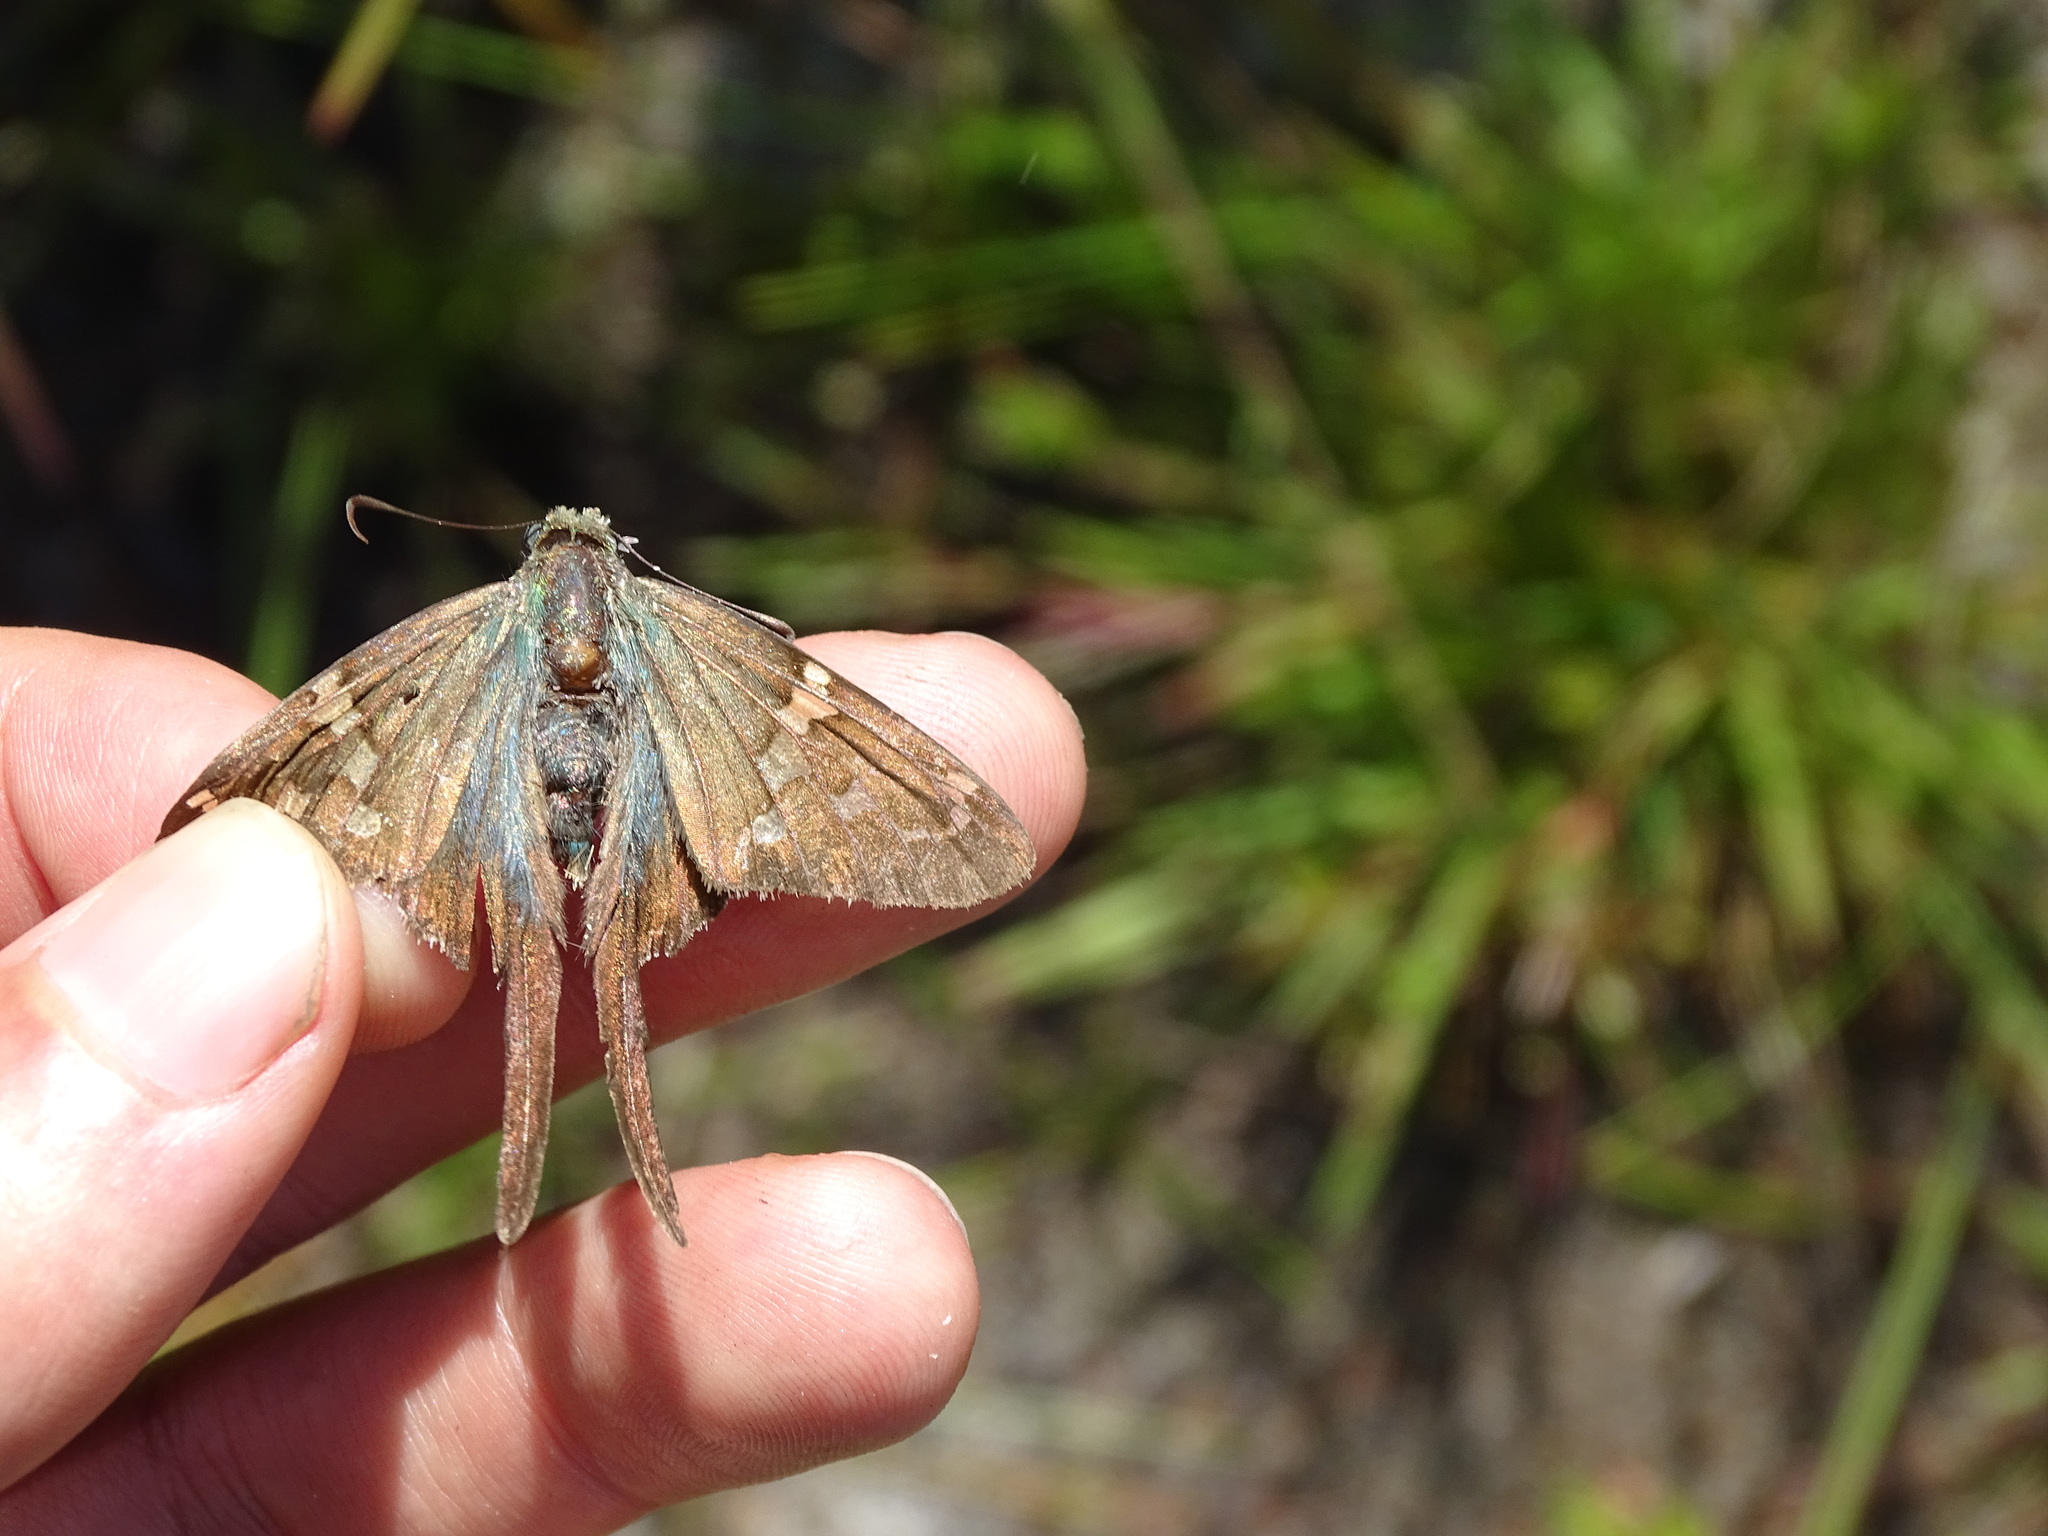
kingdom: Animalia
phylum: Arthropoda
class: Arachnida
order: Araneae
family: Oxyopidae
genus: Peucetia
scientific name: Peucetia viridans
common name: Lynx spiders
